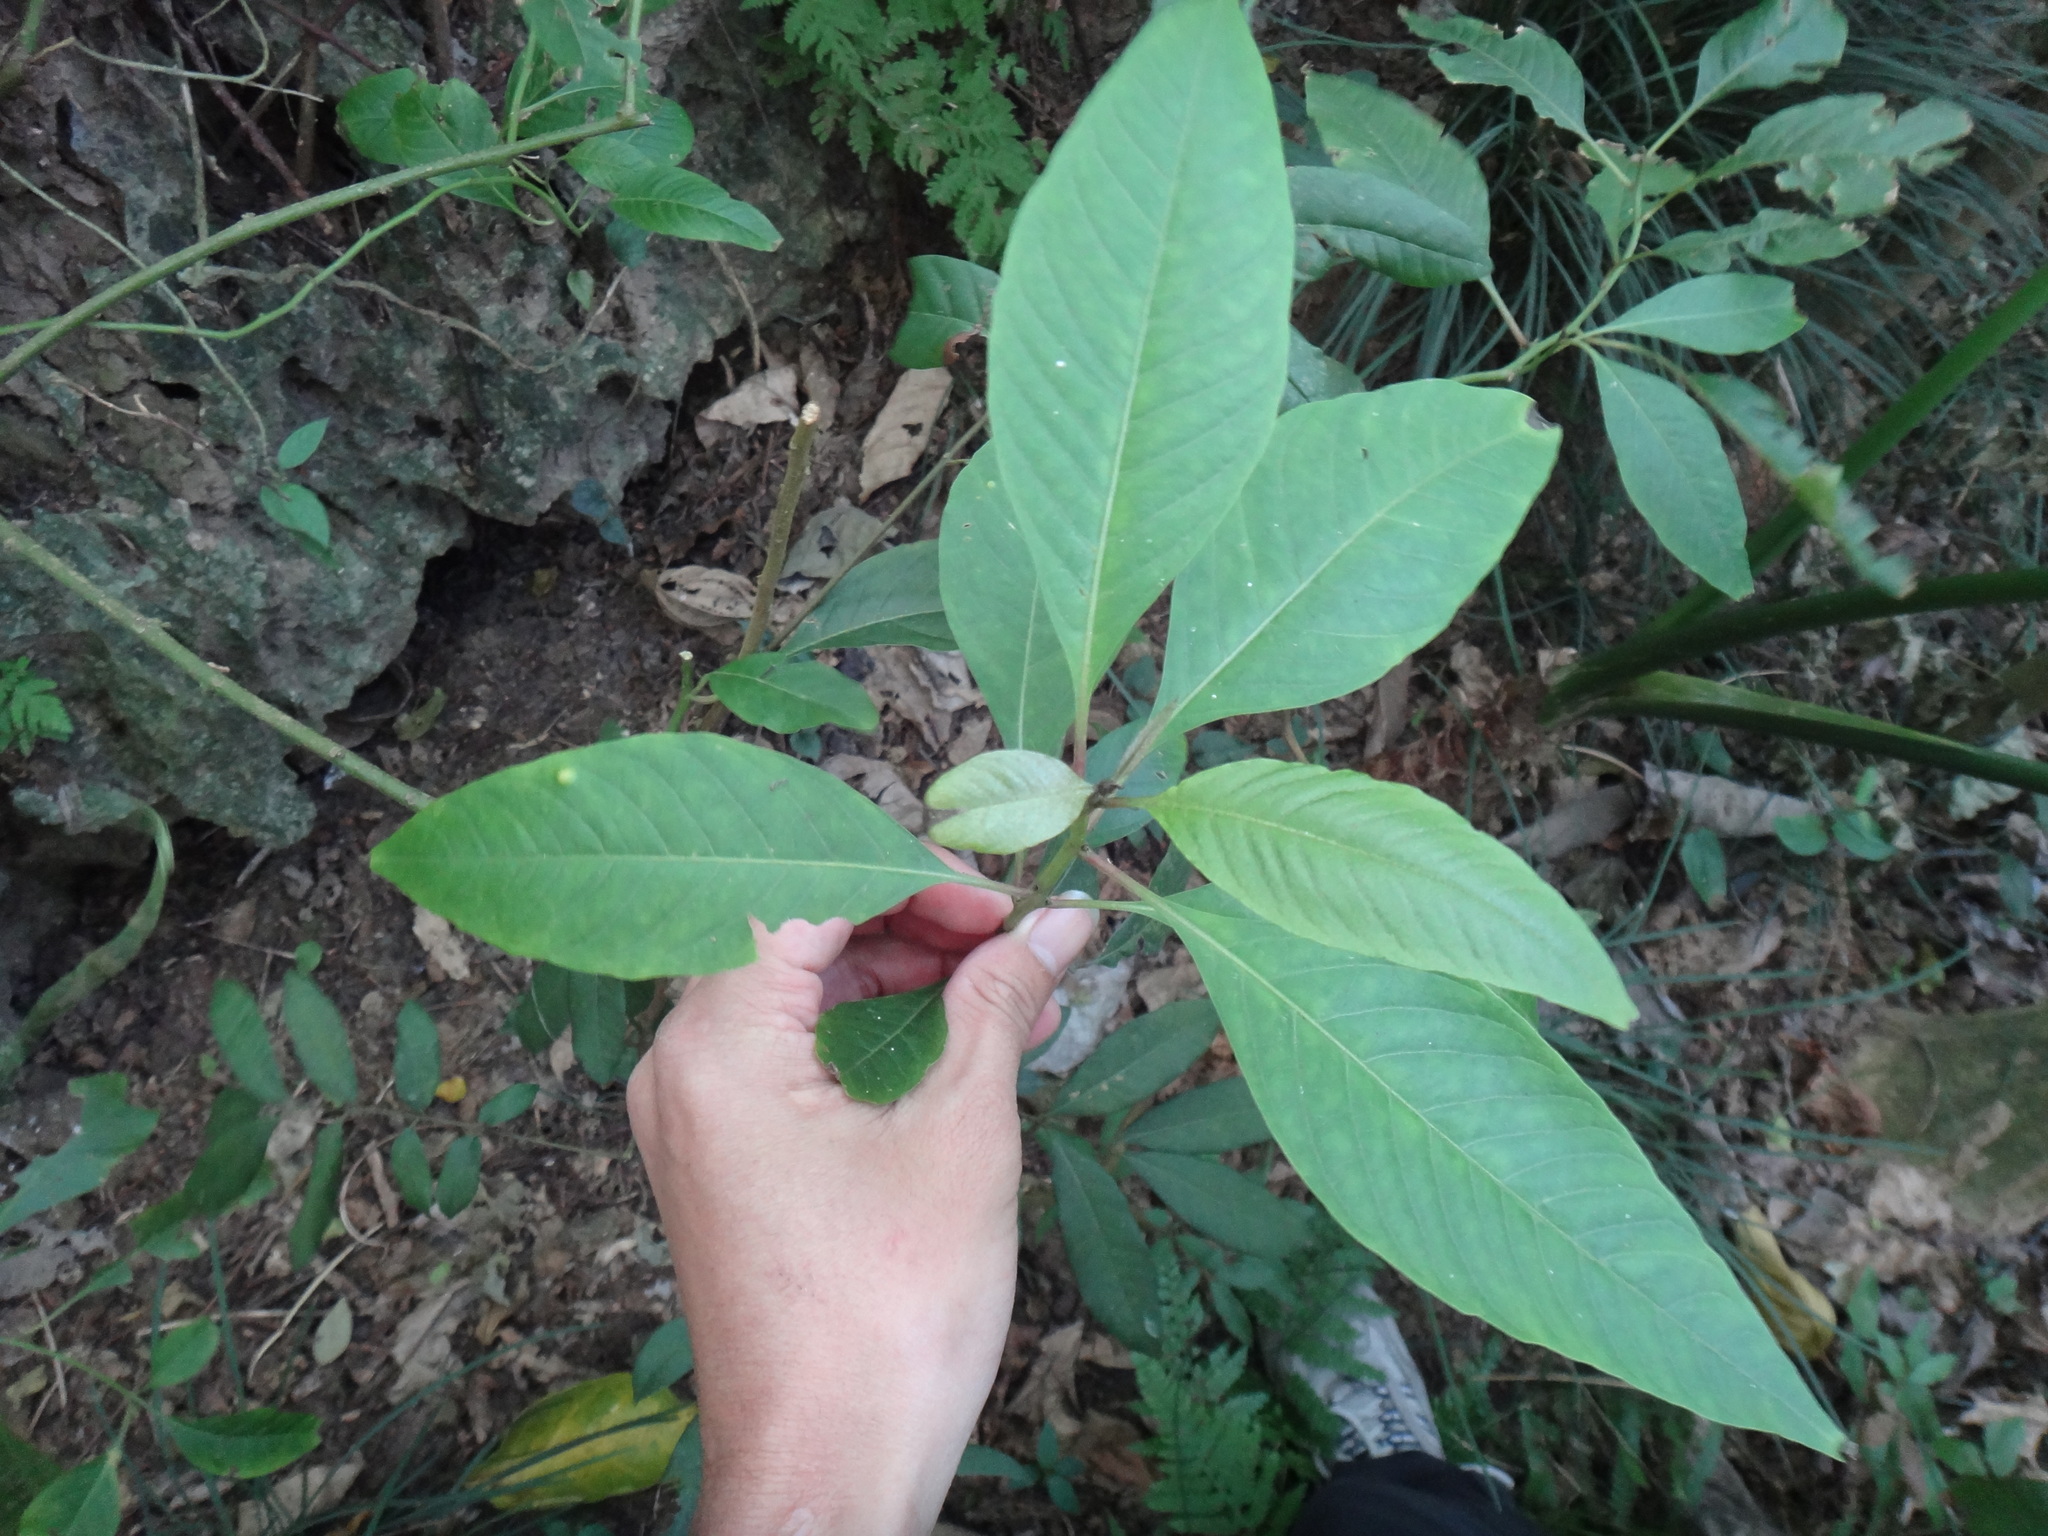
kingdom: Plantae
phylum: Tracheophyta
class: Magnoliopsida
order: Caryophyllales
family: Amaranthaceae
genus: Deeringia
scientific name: Deeringia polysperma
